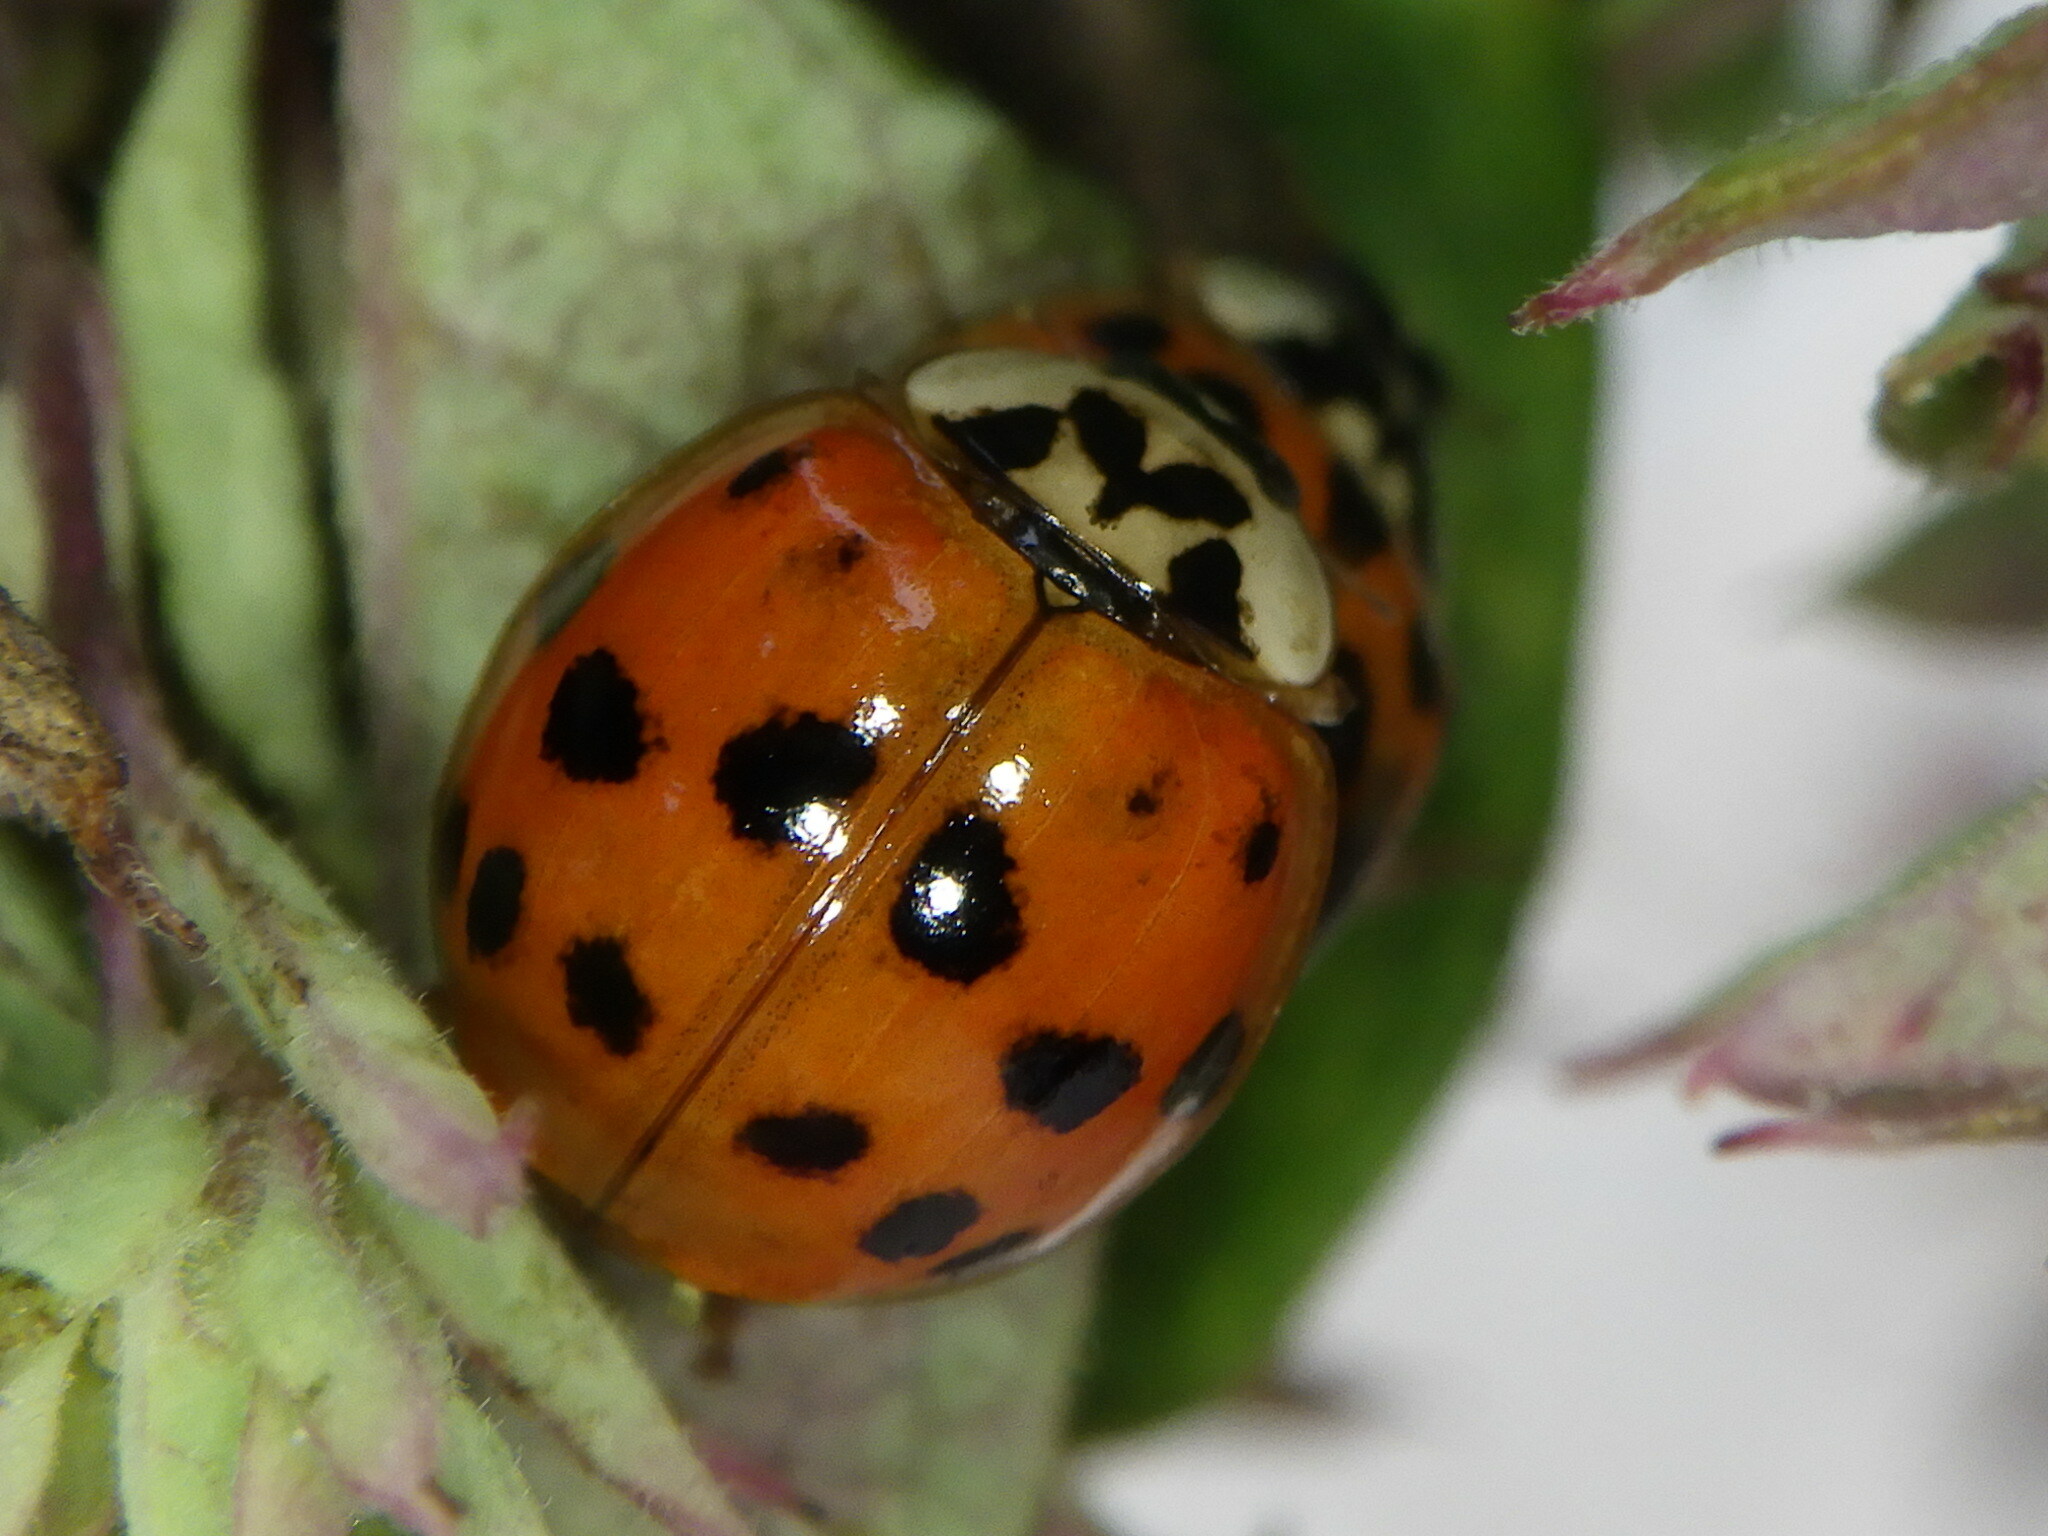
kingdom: Animalia
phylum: Arthropoda
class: Insecta
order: Coleoptera
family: Coccinellidae
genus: Harmonia
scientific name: Harmonia axyridis
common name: Harlequin ladybird
